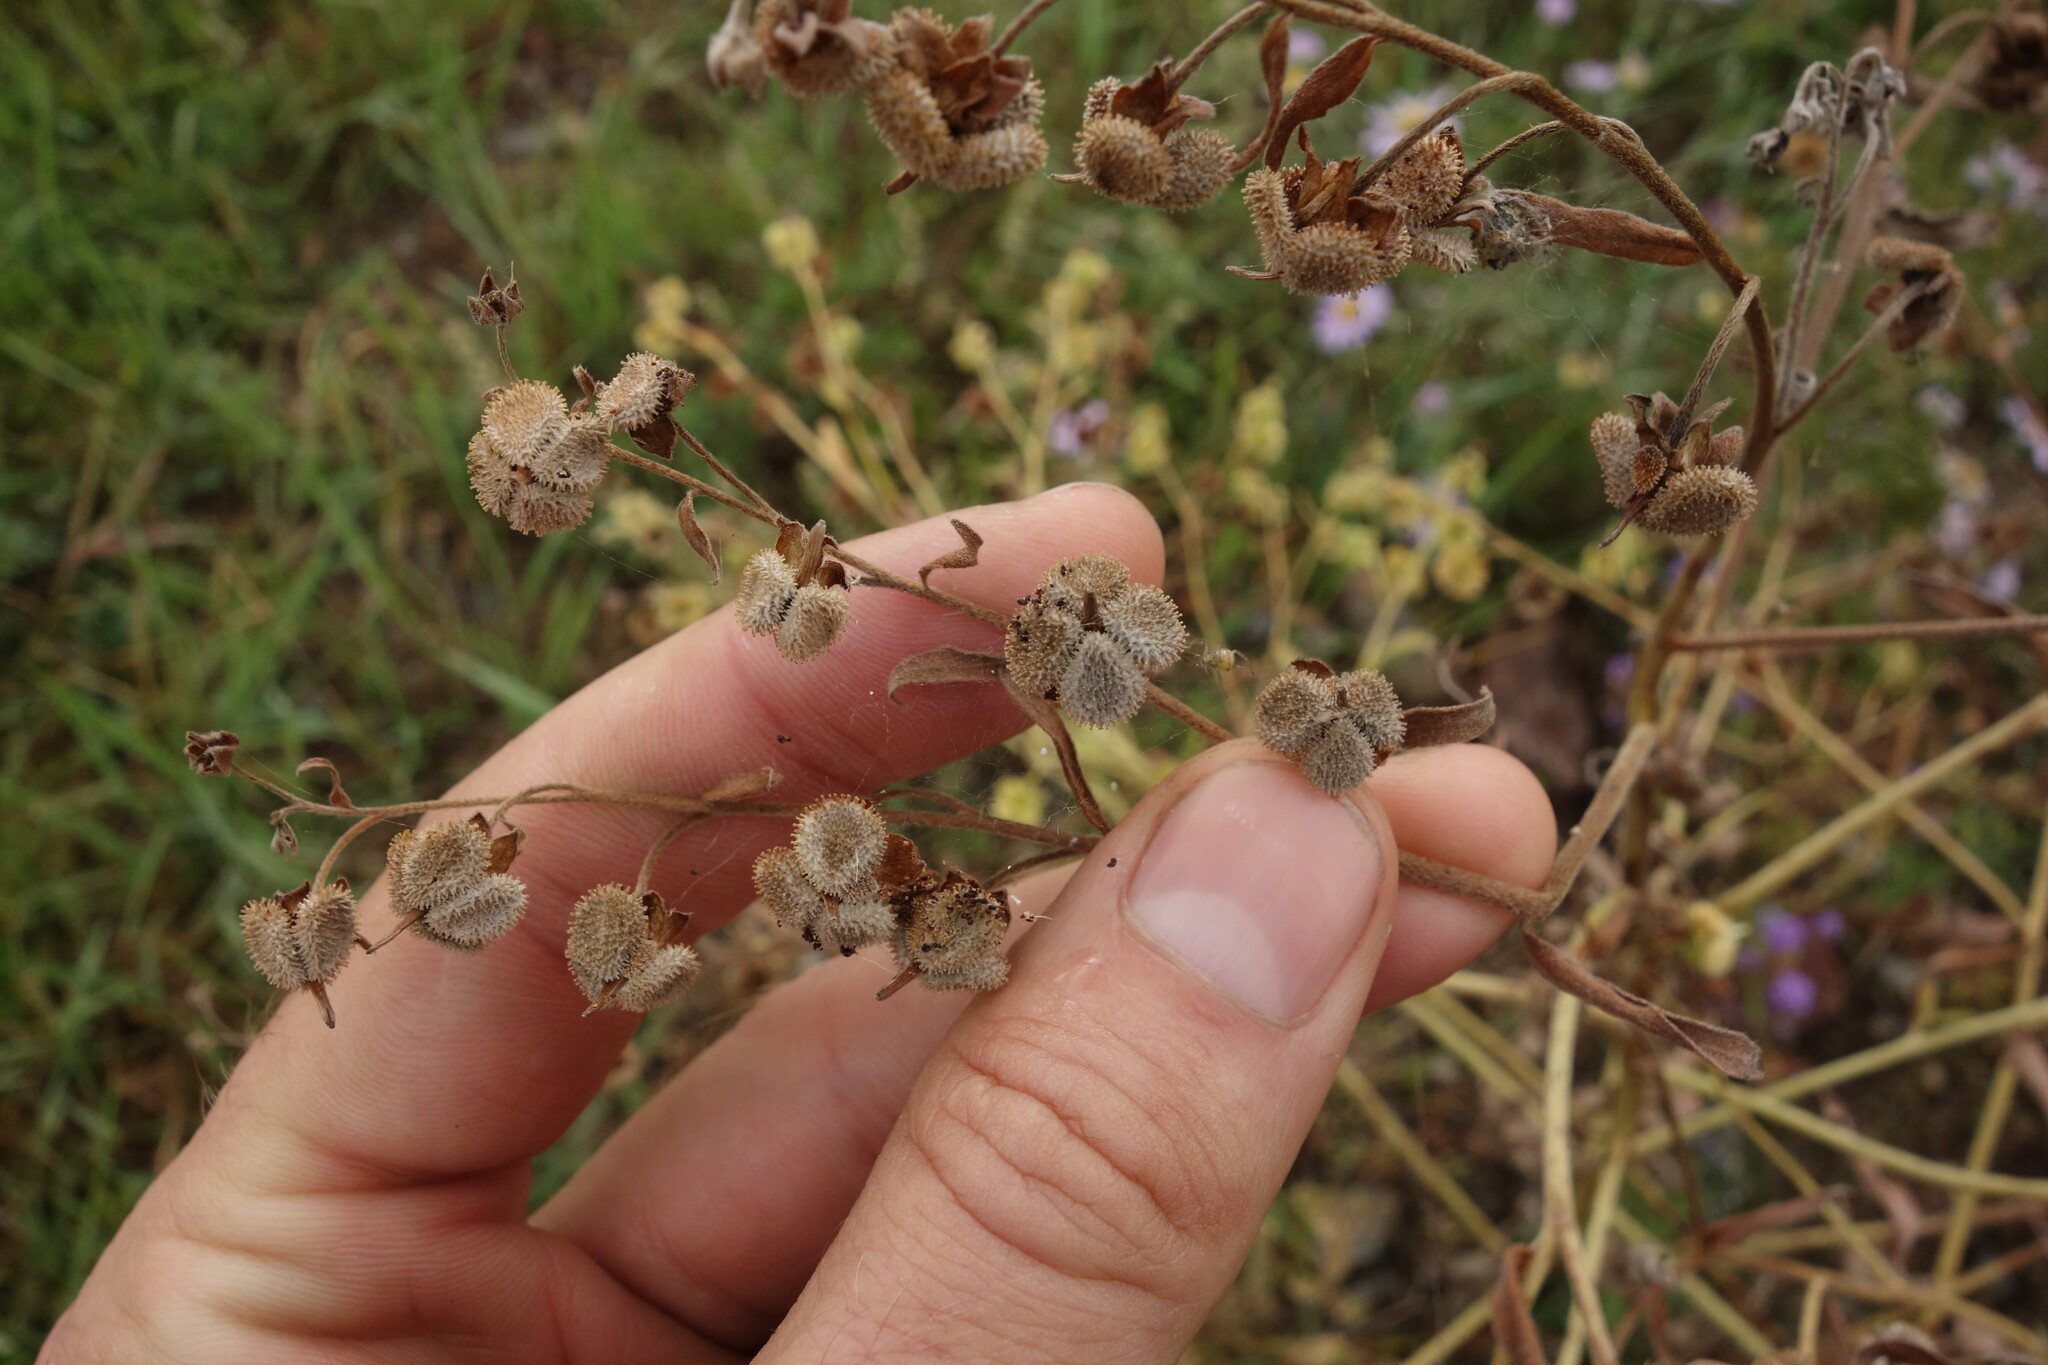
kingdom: Plantae
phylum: Tracheophyta
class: Magnoliopsida
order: Boraginales
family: Boraginaceae
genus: Cynoglossum
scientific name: Cynoglossum divaricatum
